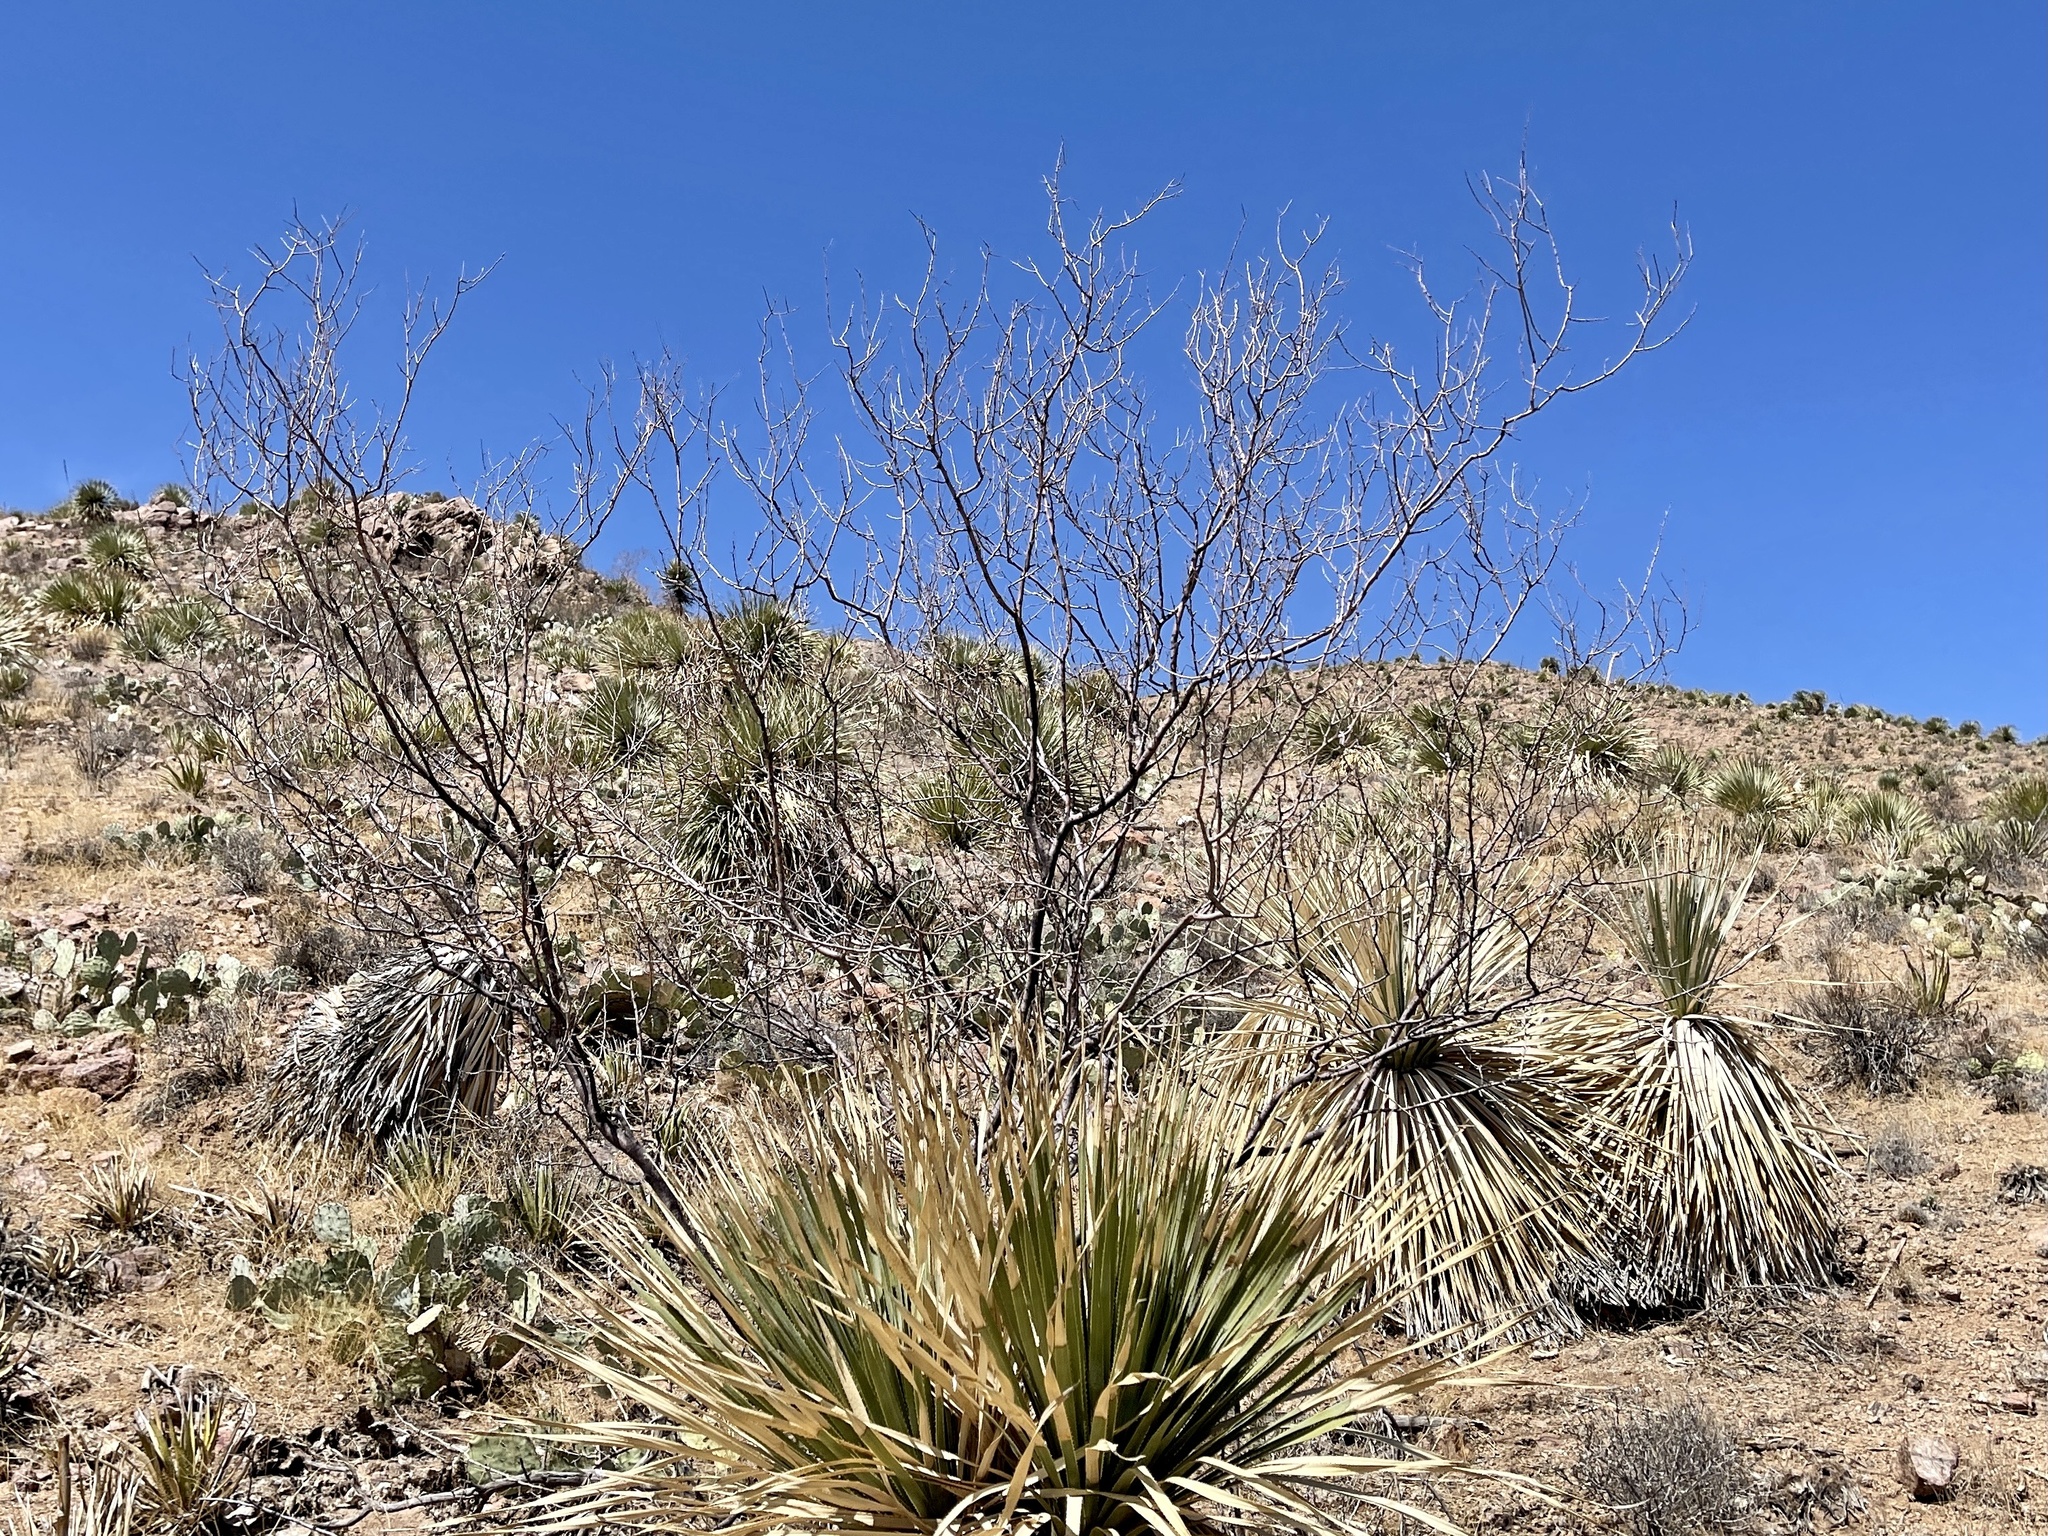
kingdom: Plantae
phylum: Tracheophyta
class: Magnoliopsida
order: Fabales
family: Fabaceae
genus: Vachellia
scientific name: Vachellia constricta
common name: Mescat acacia
